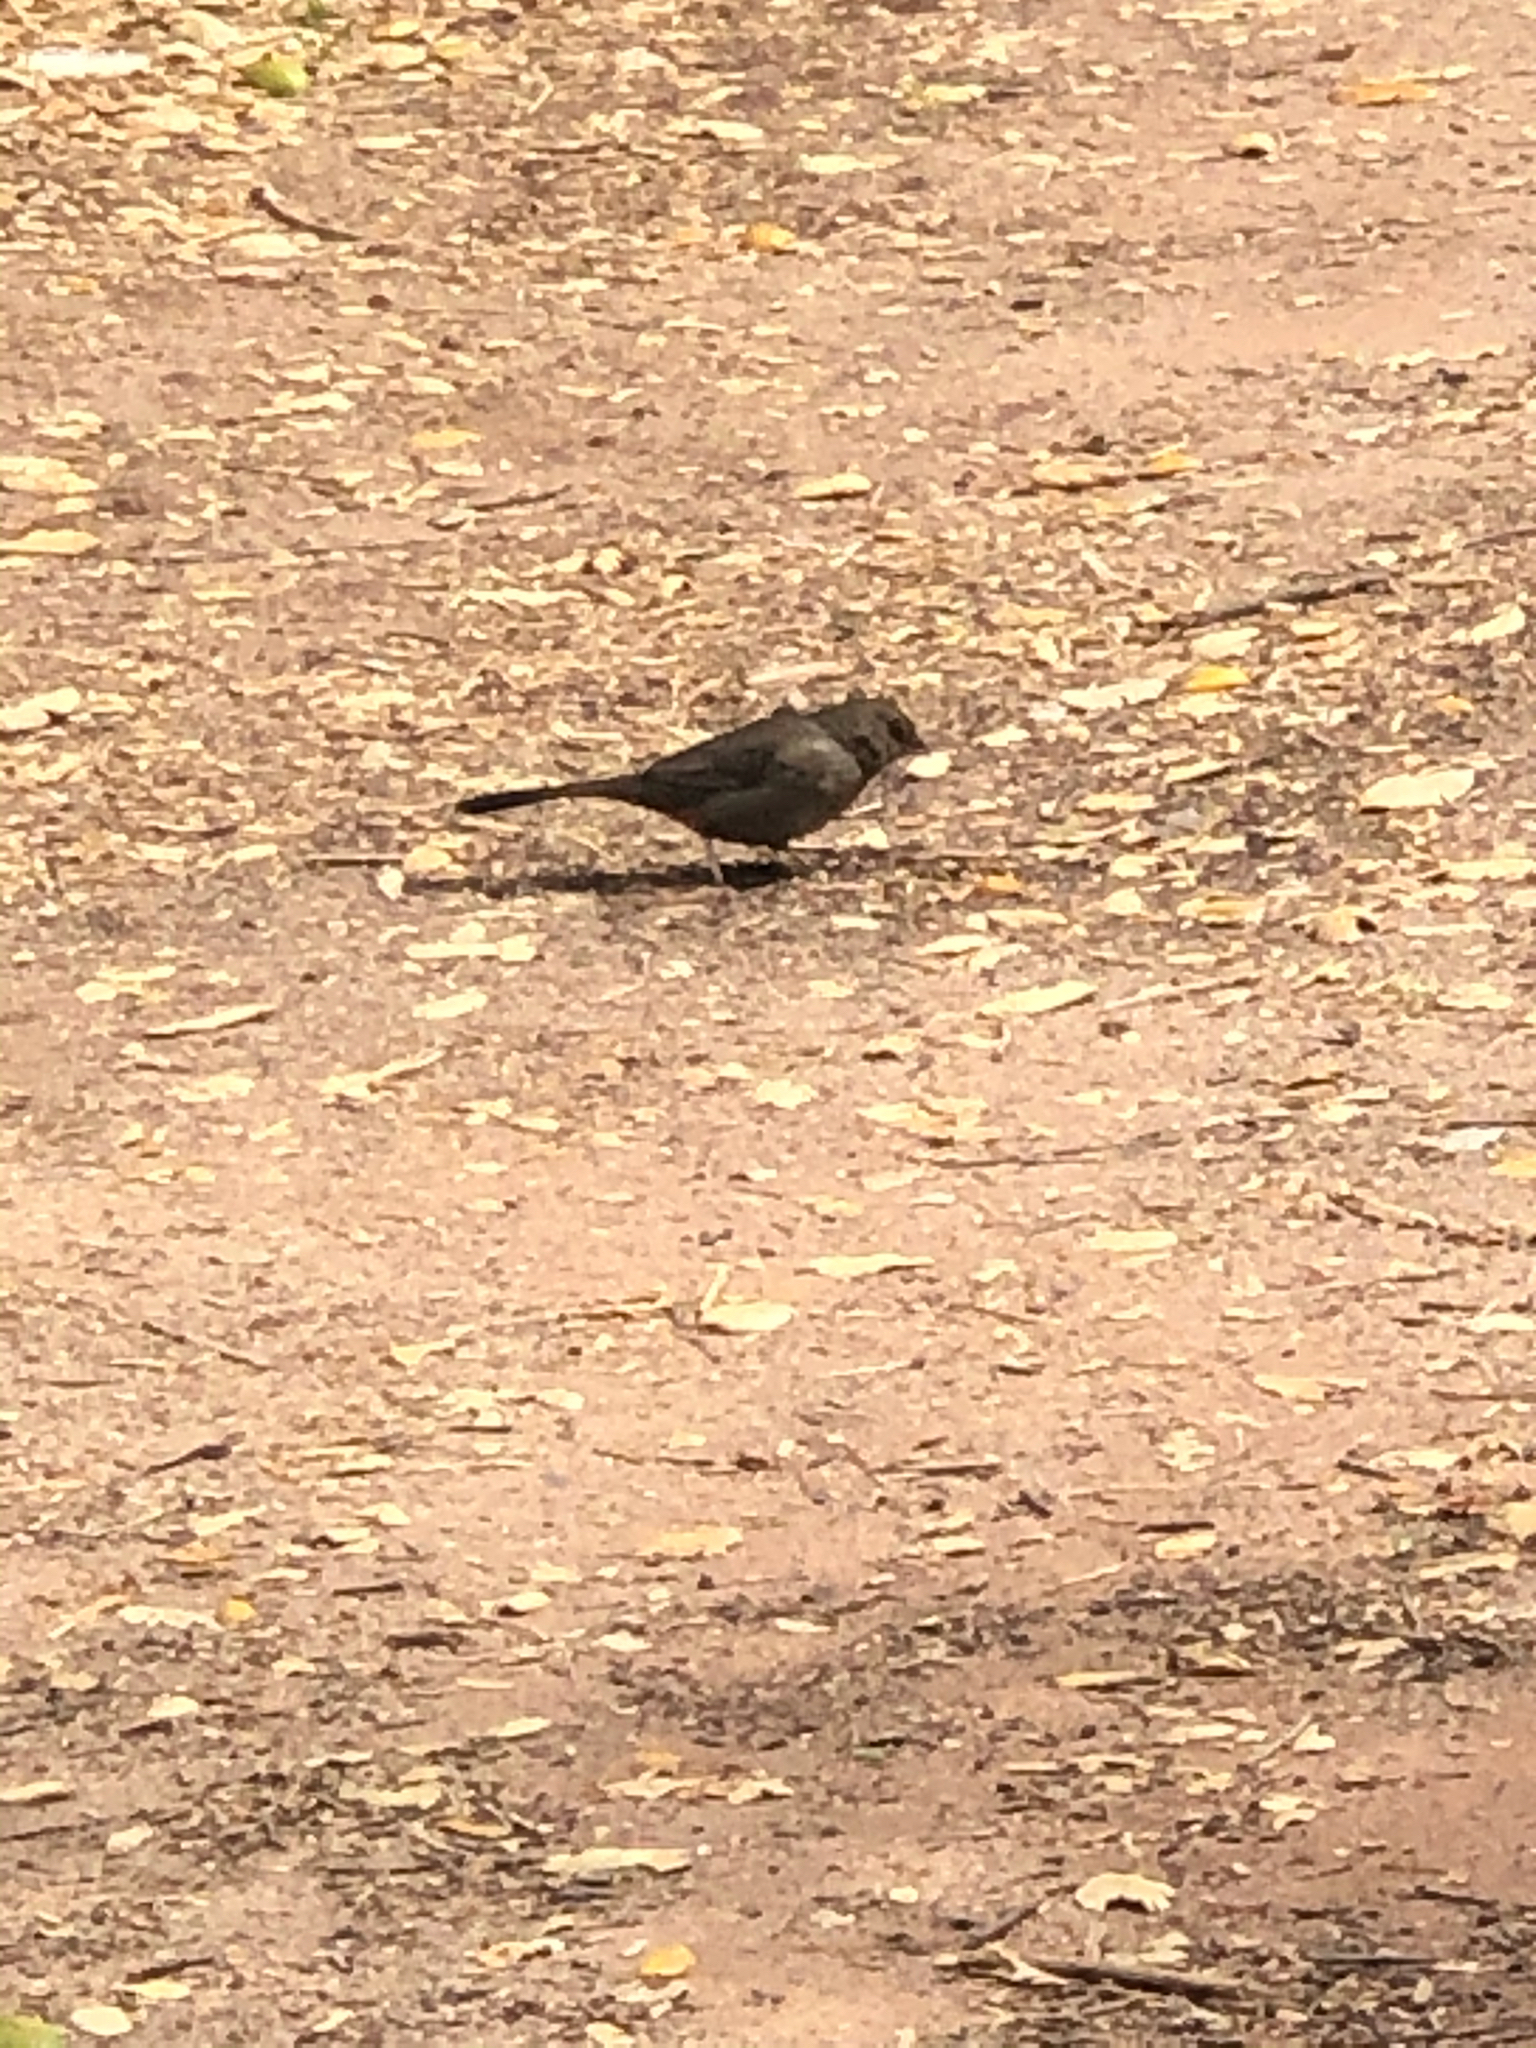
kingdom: Animalia
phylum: Chordata
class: Aves
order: Passeriformes
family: Passerellidae
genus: Melozone
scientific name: Melozone crissalis
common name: California towhee
